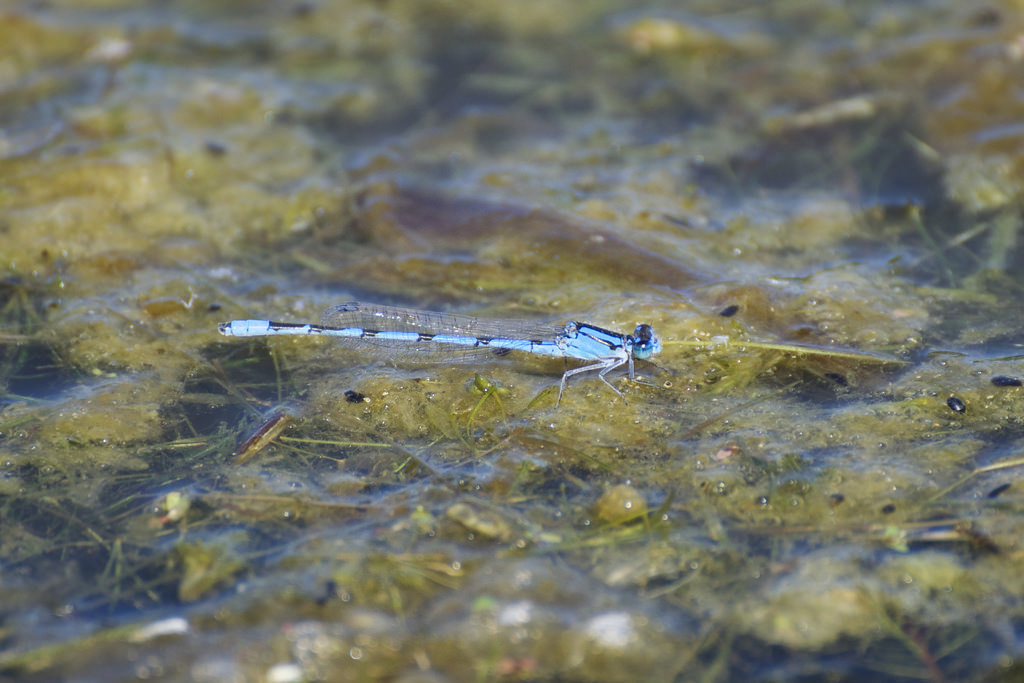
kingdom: Animalia
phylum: Arthropoda
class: Insecta
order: Odonata
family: Coenagrionidae
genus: Enallagma
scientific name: Enallagma civile
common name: Damselfly
